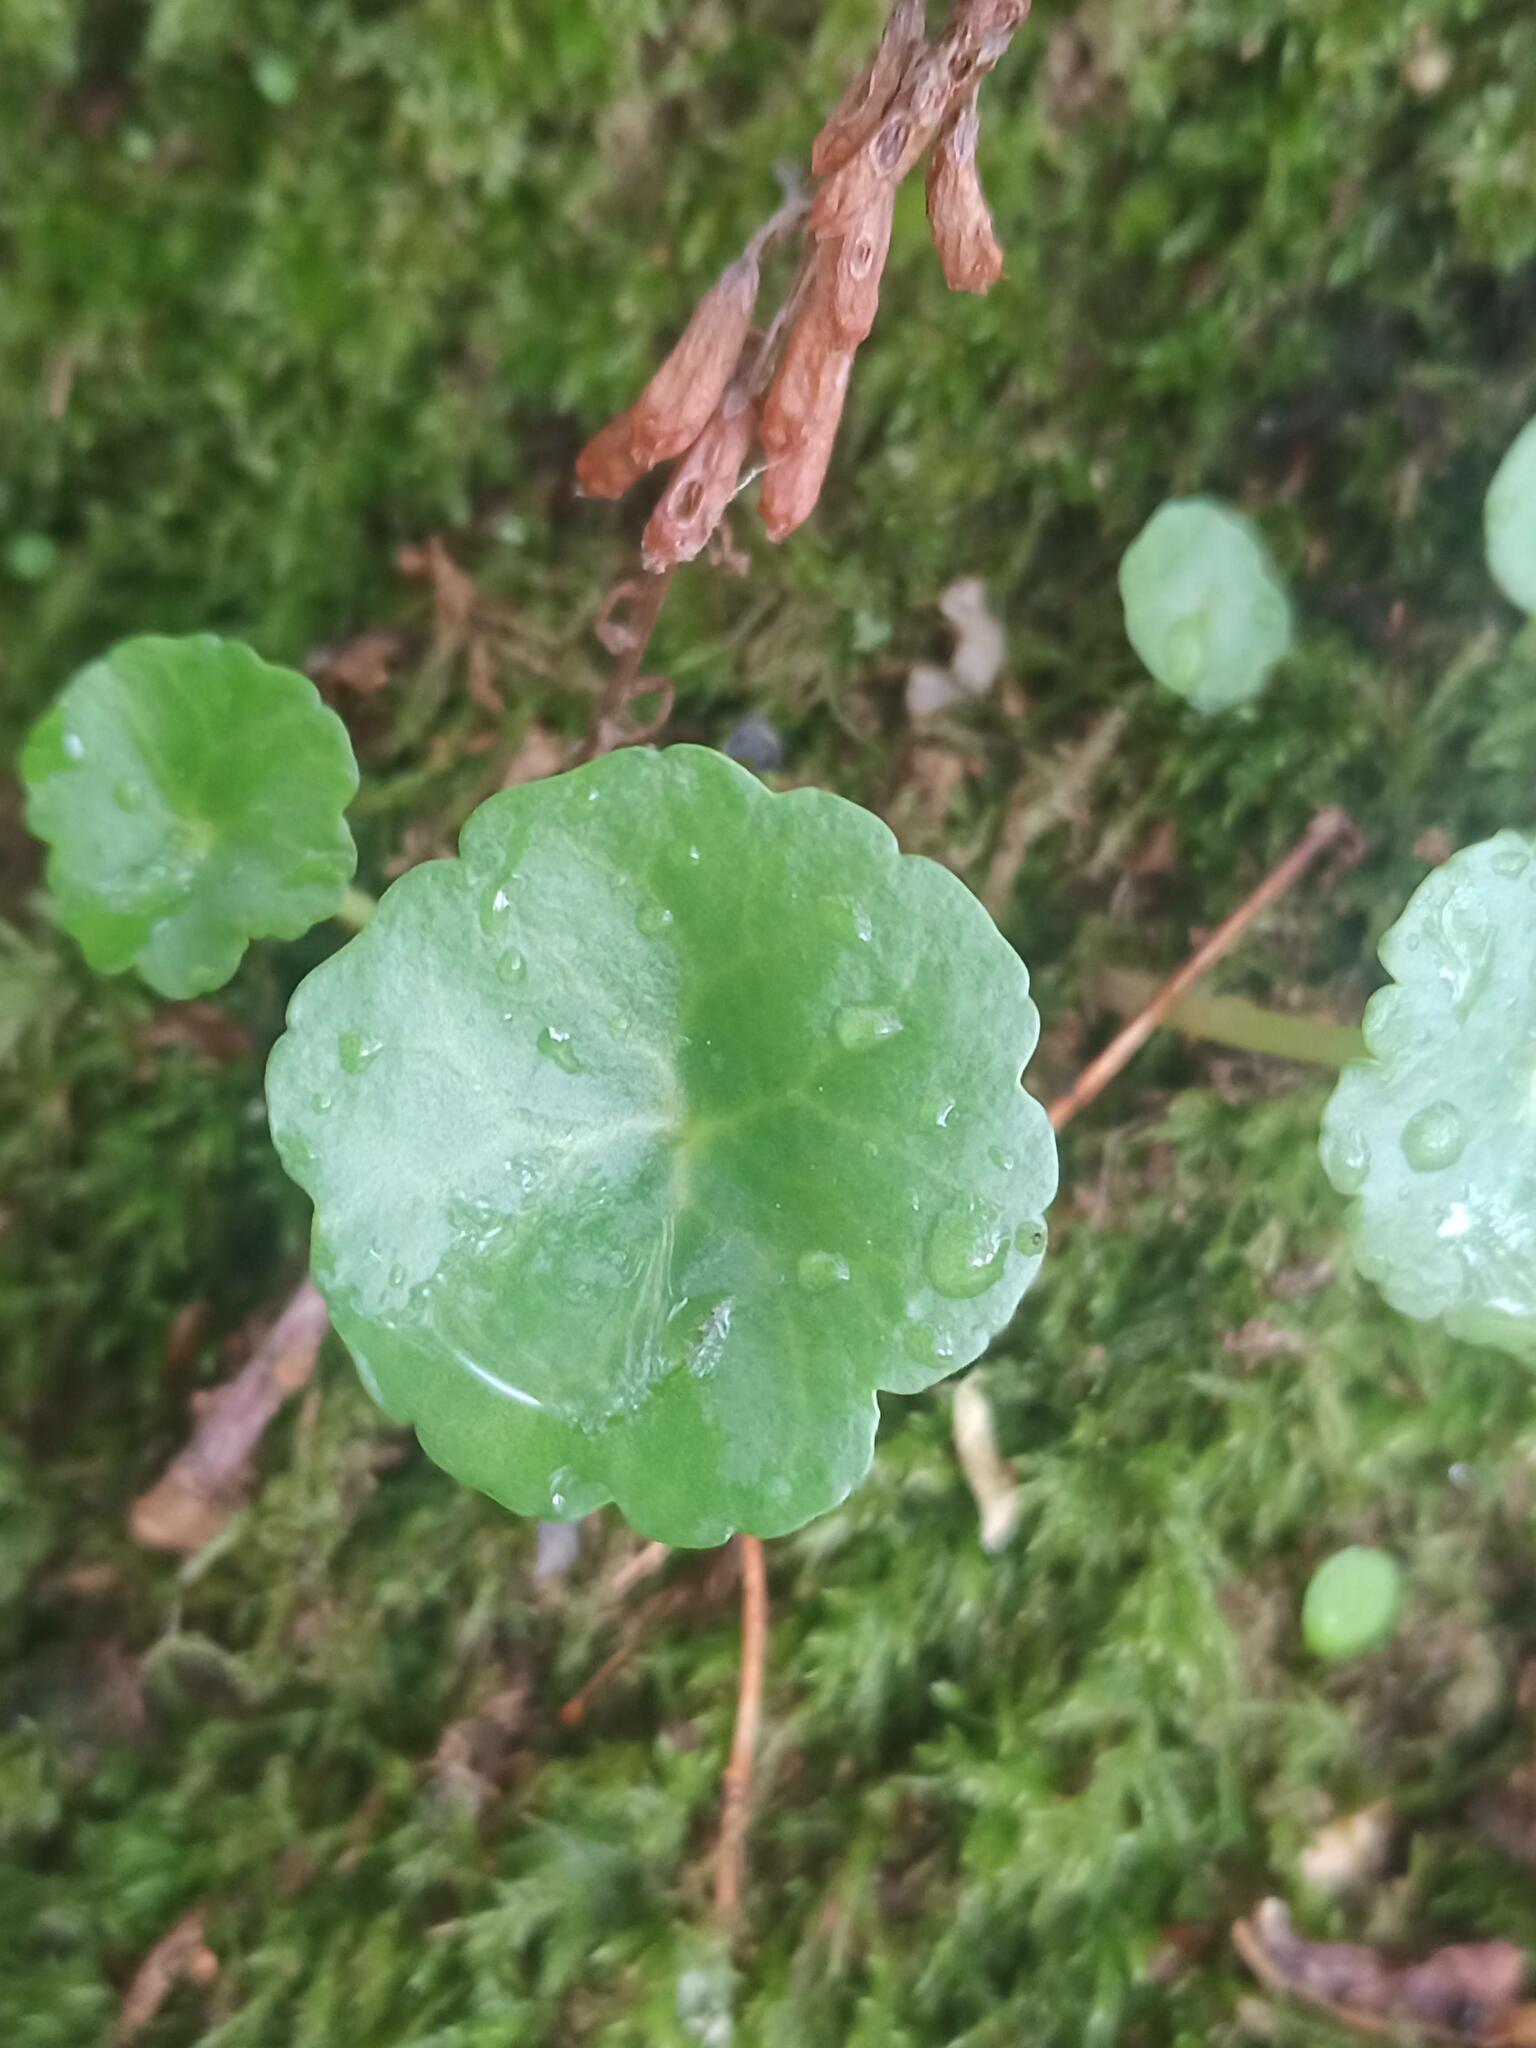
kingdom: Plantae
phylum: Tracheophyta
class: Magnoliopsida
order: Saxifragales
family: Crassulaceae
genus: Umbilicus
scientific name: Umbilicus rupestris
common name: Navelwort
